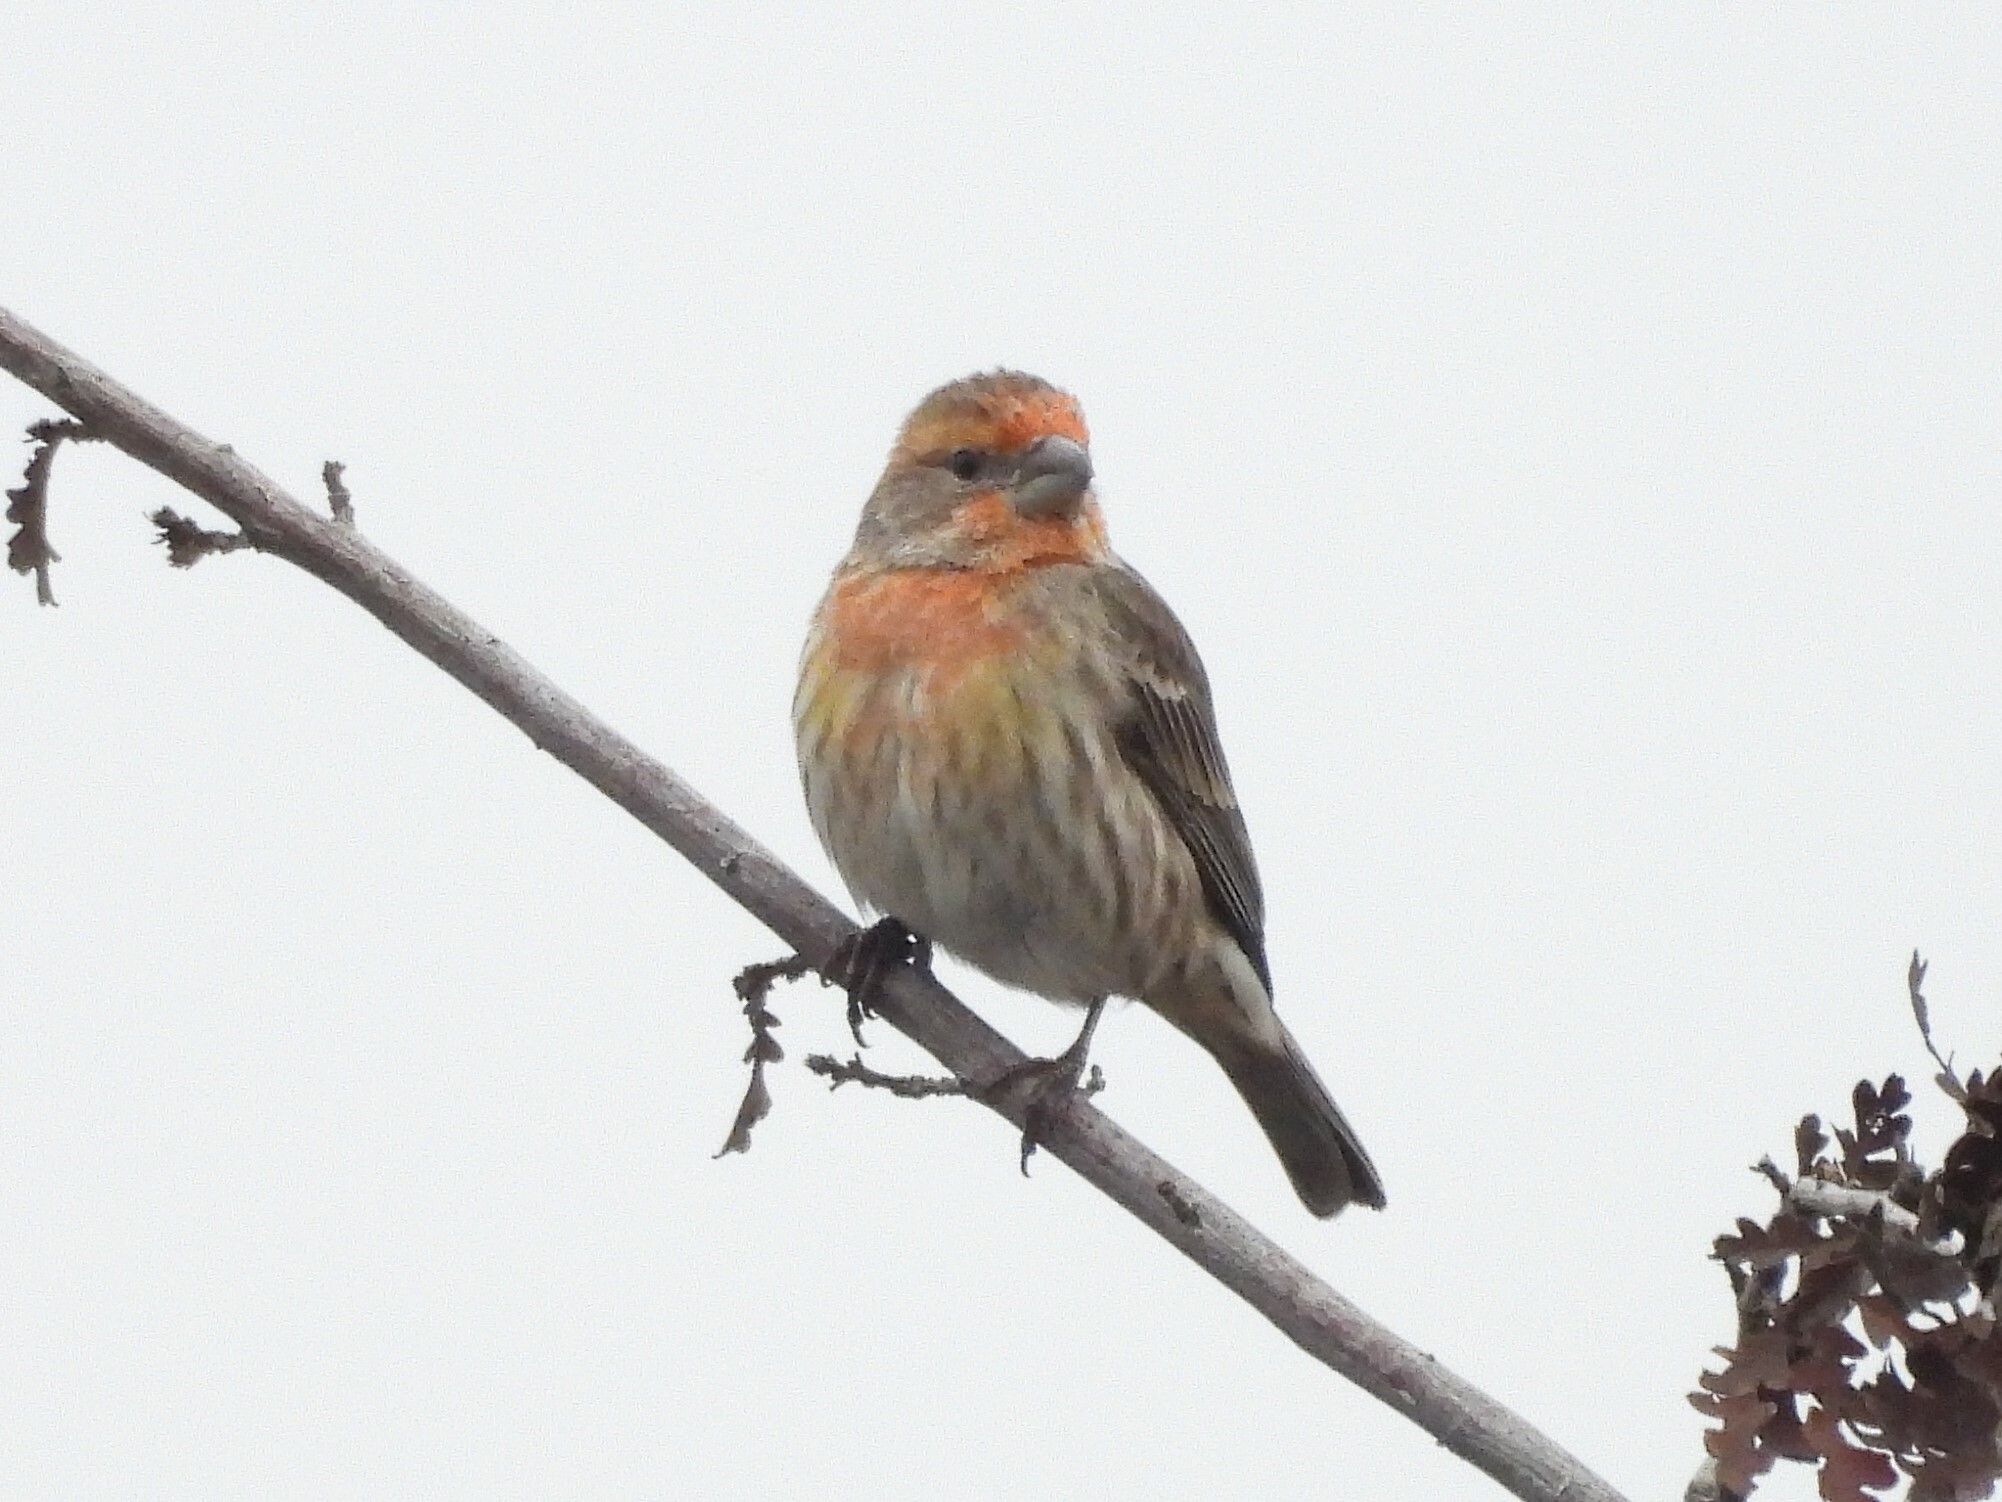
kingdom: Animalia
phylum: Chordata
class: Aves
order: Passeriformes
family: Fringillidae
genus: Haemorhous
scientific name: Haemorhous mexicanus
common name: House finch
